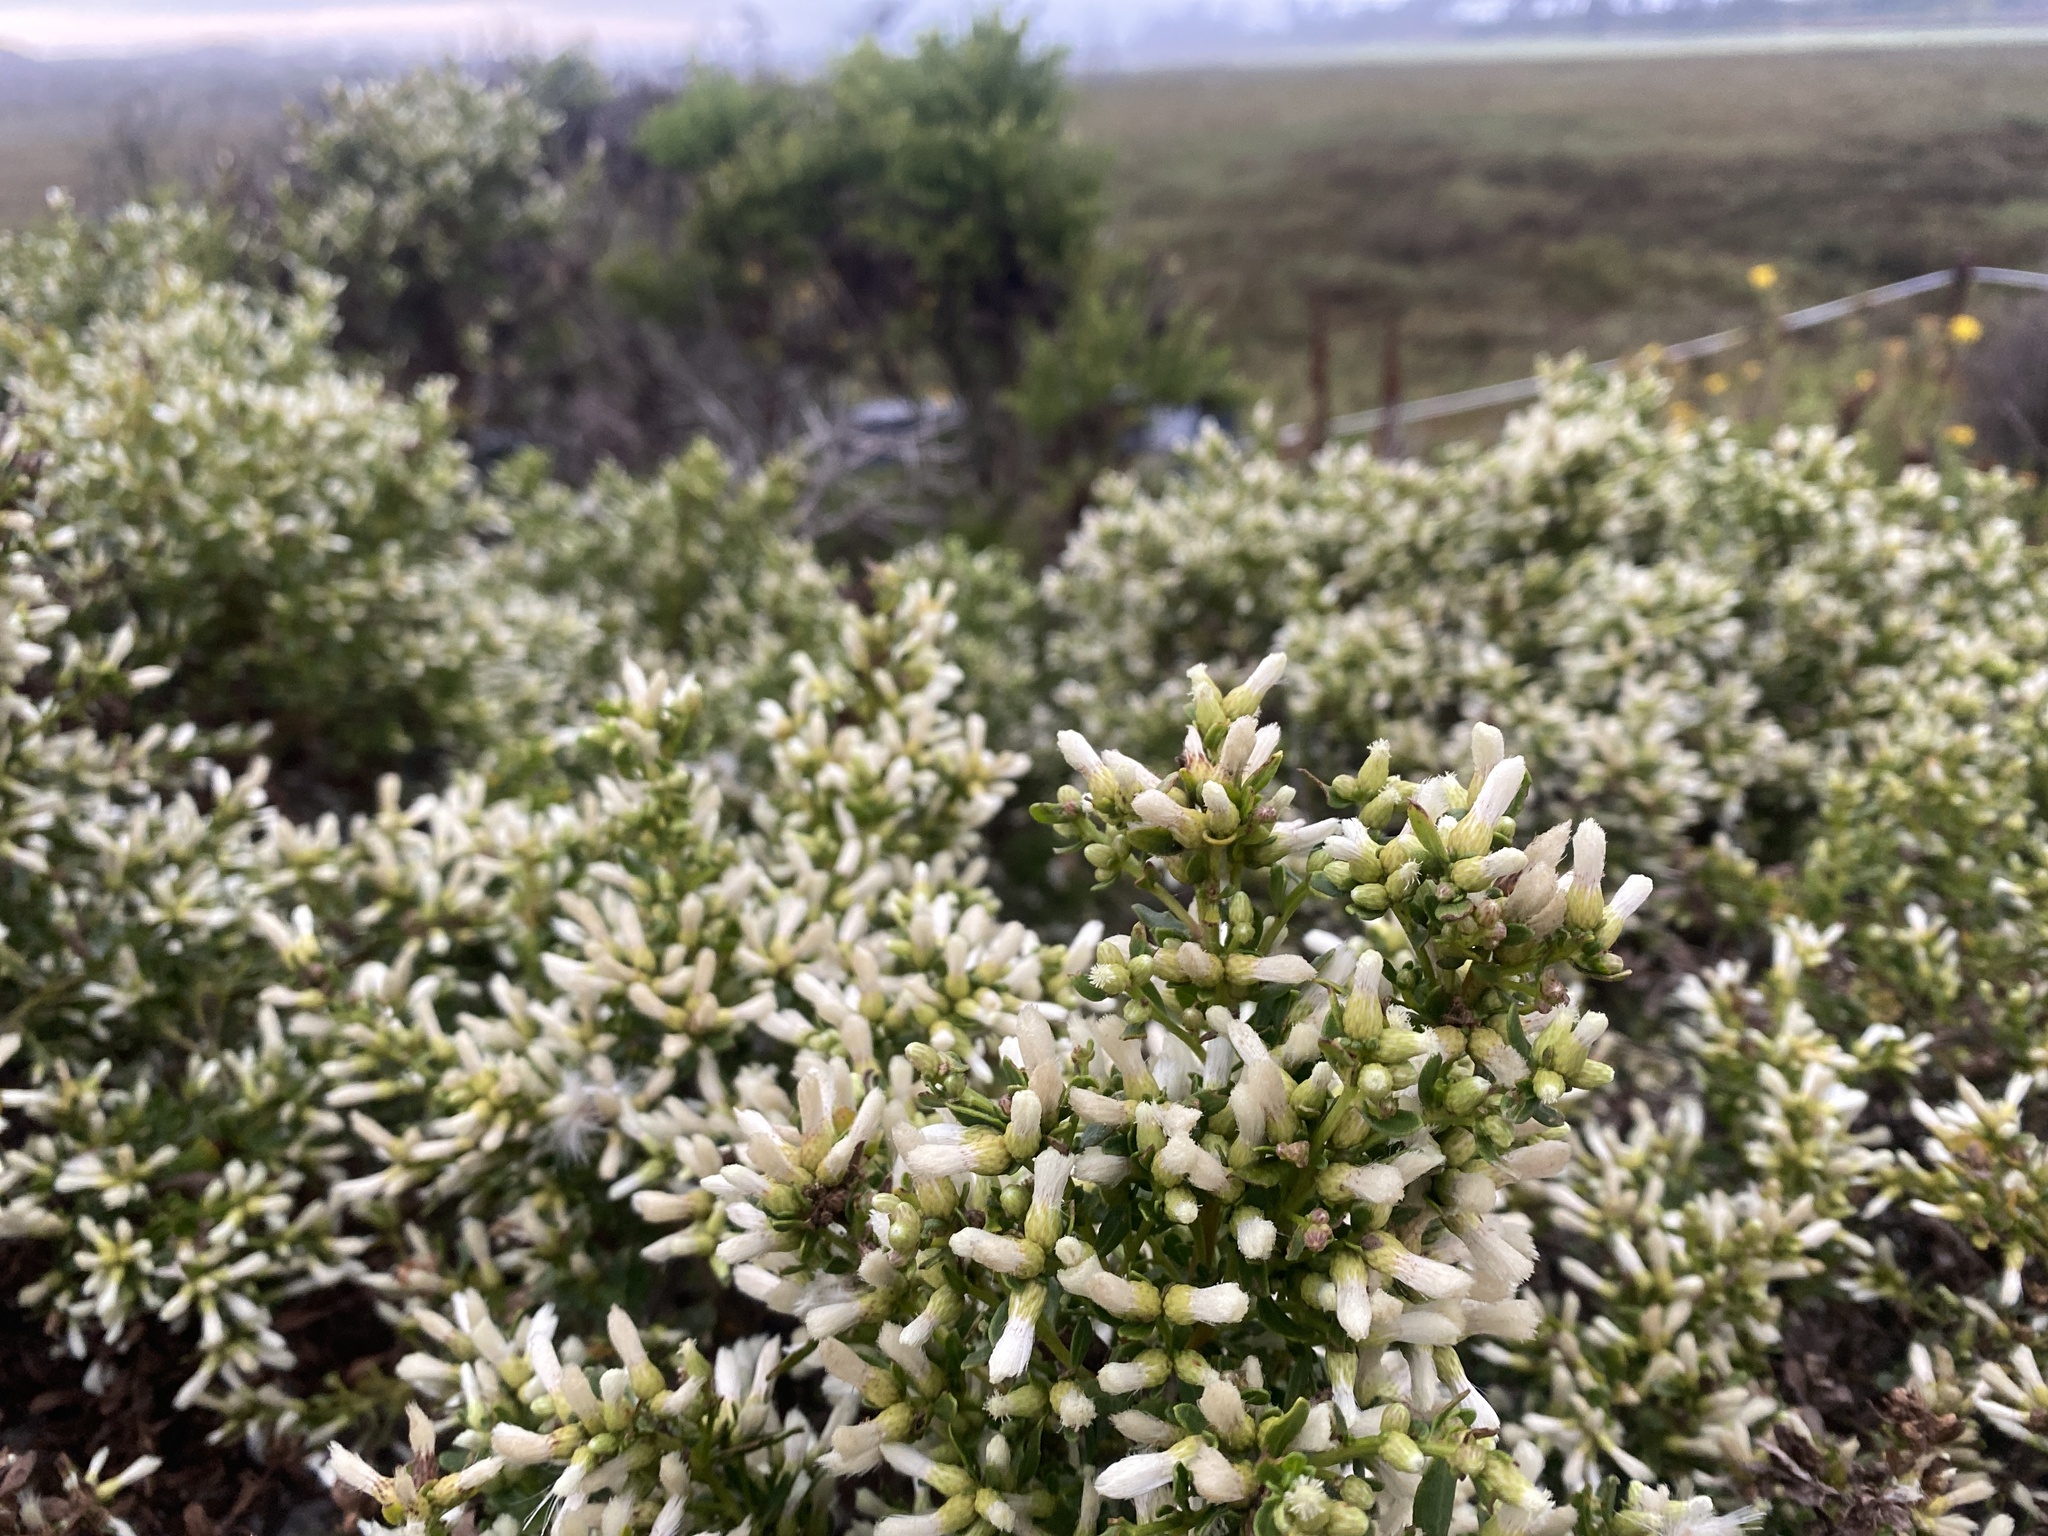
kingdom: Plantae
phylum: Tracheophyta
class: Magnoliopsida
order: Asterales
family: Asteraceae
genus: Baccharis
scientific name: Baccharis pilularis
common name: Coyotebrush
